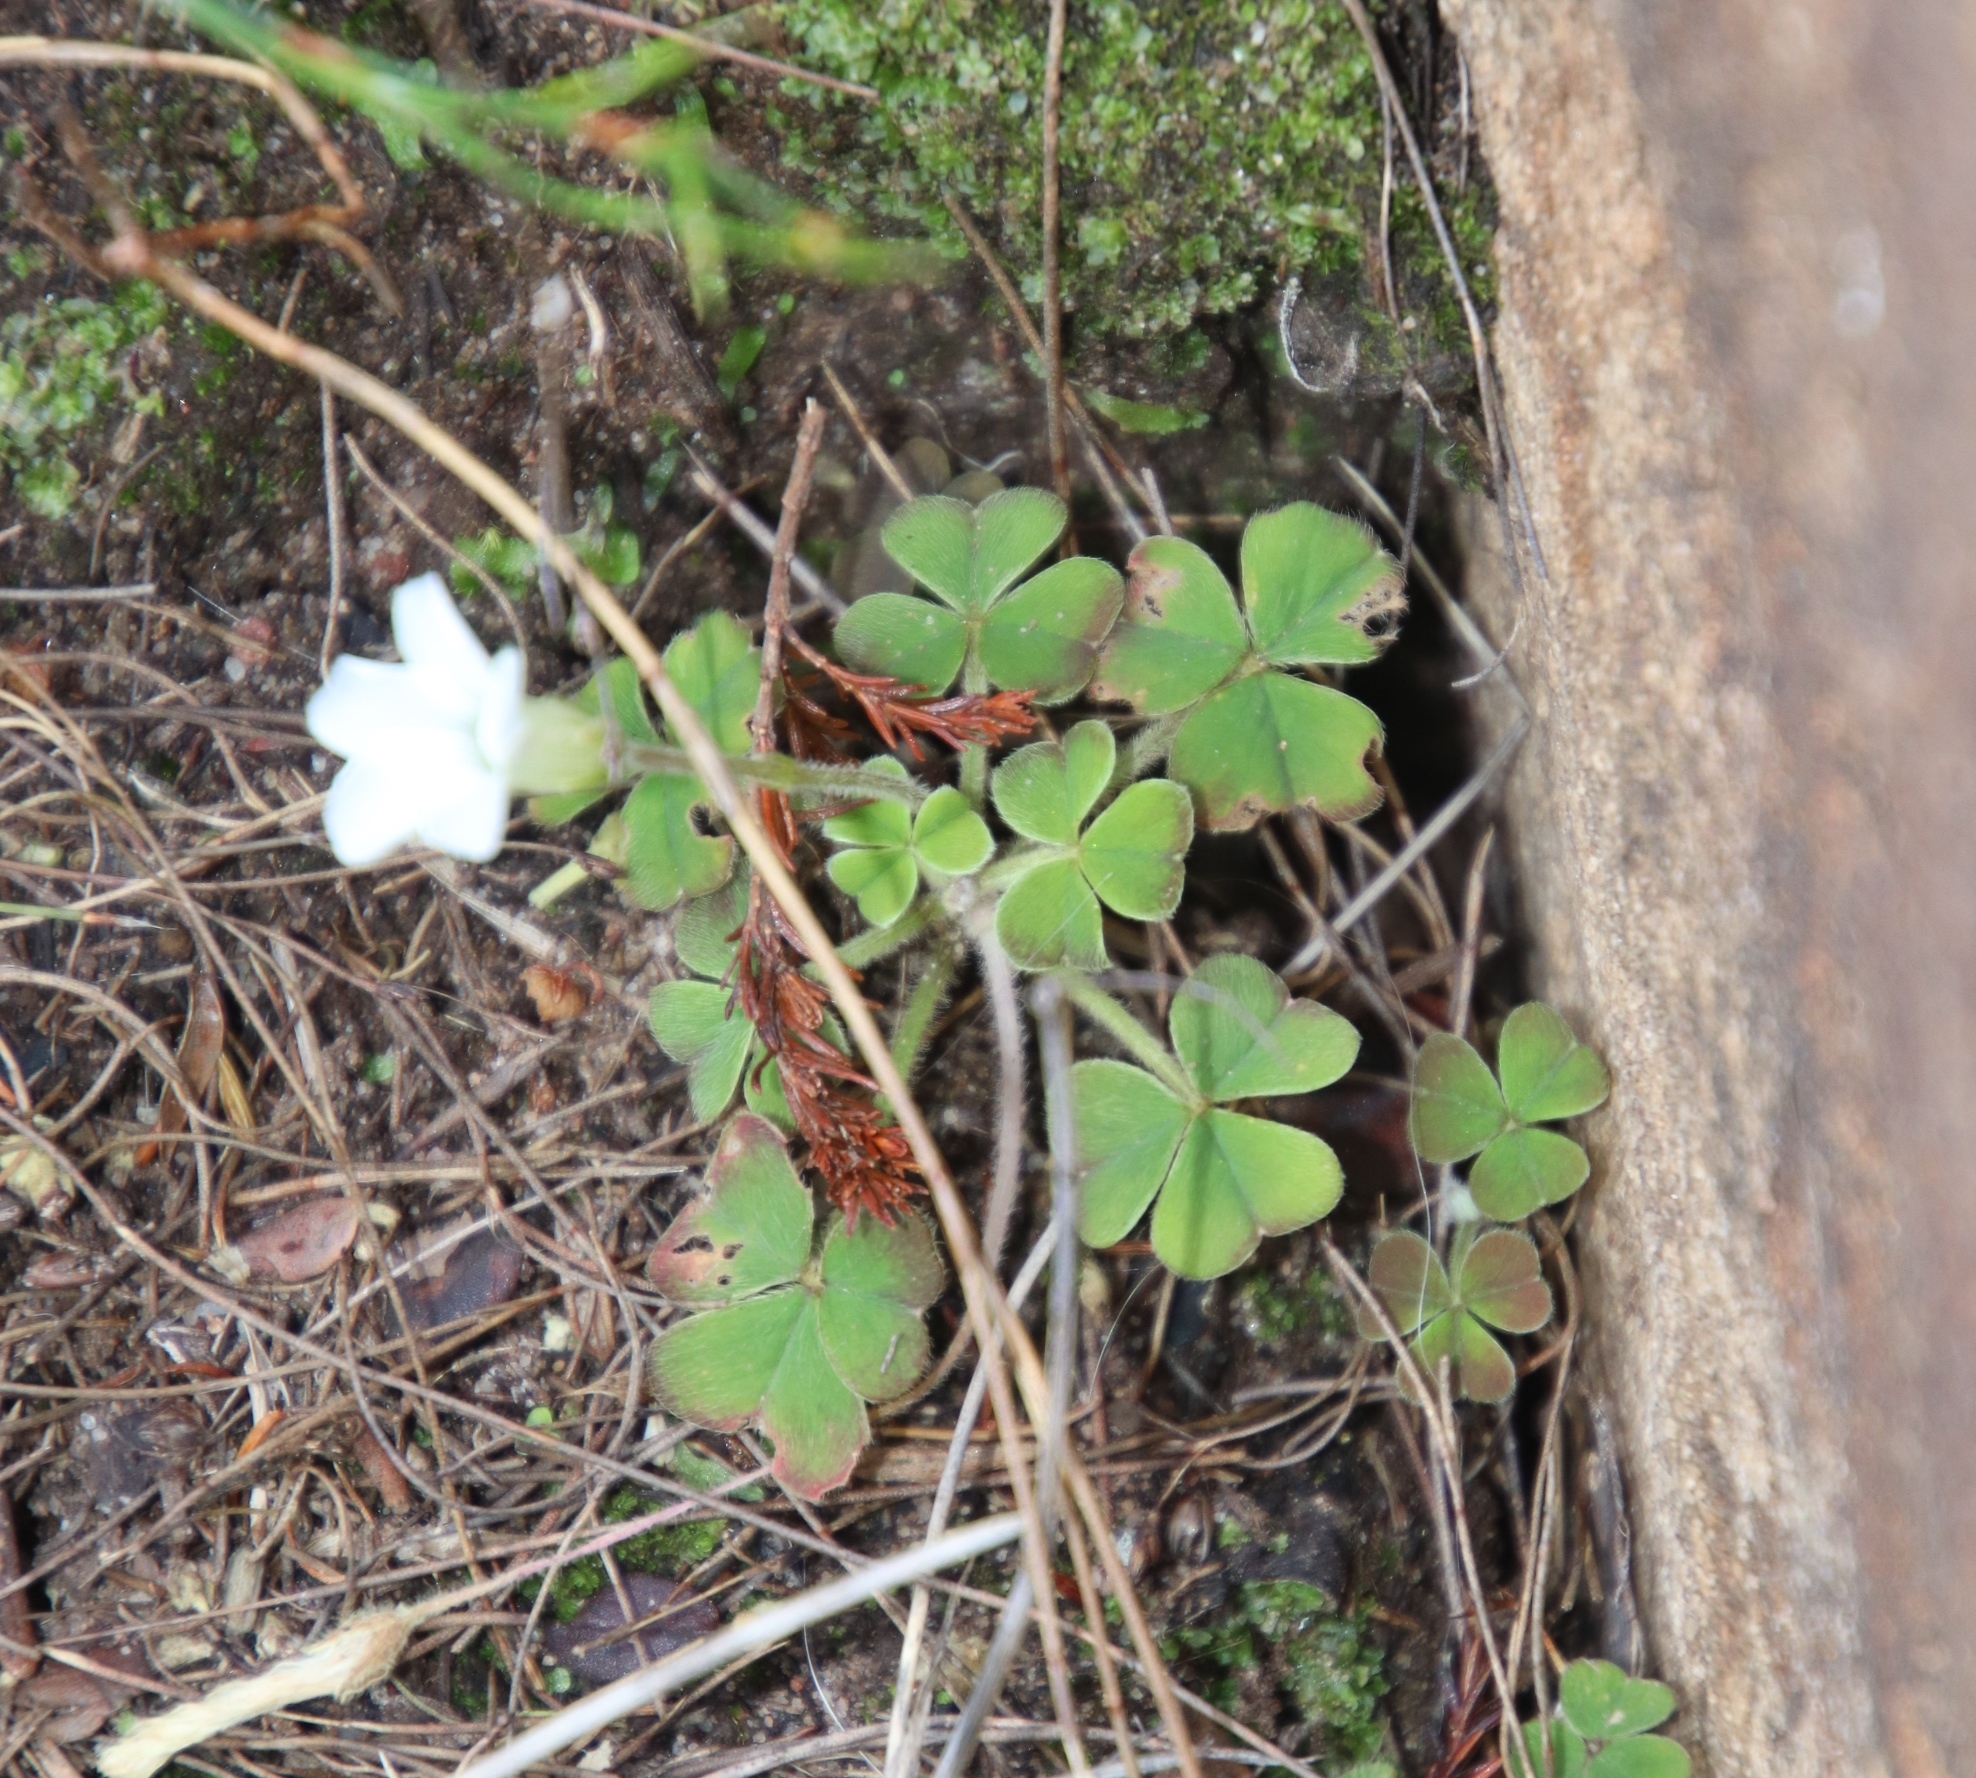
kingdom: Plantae
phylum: Tracheophyta
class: Magnoliopsida
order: Oxalidales
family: Oxalidaceae
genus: Oxalis
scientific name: Oxalis lanata
